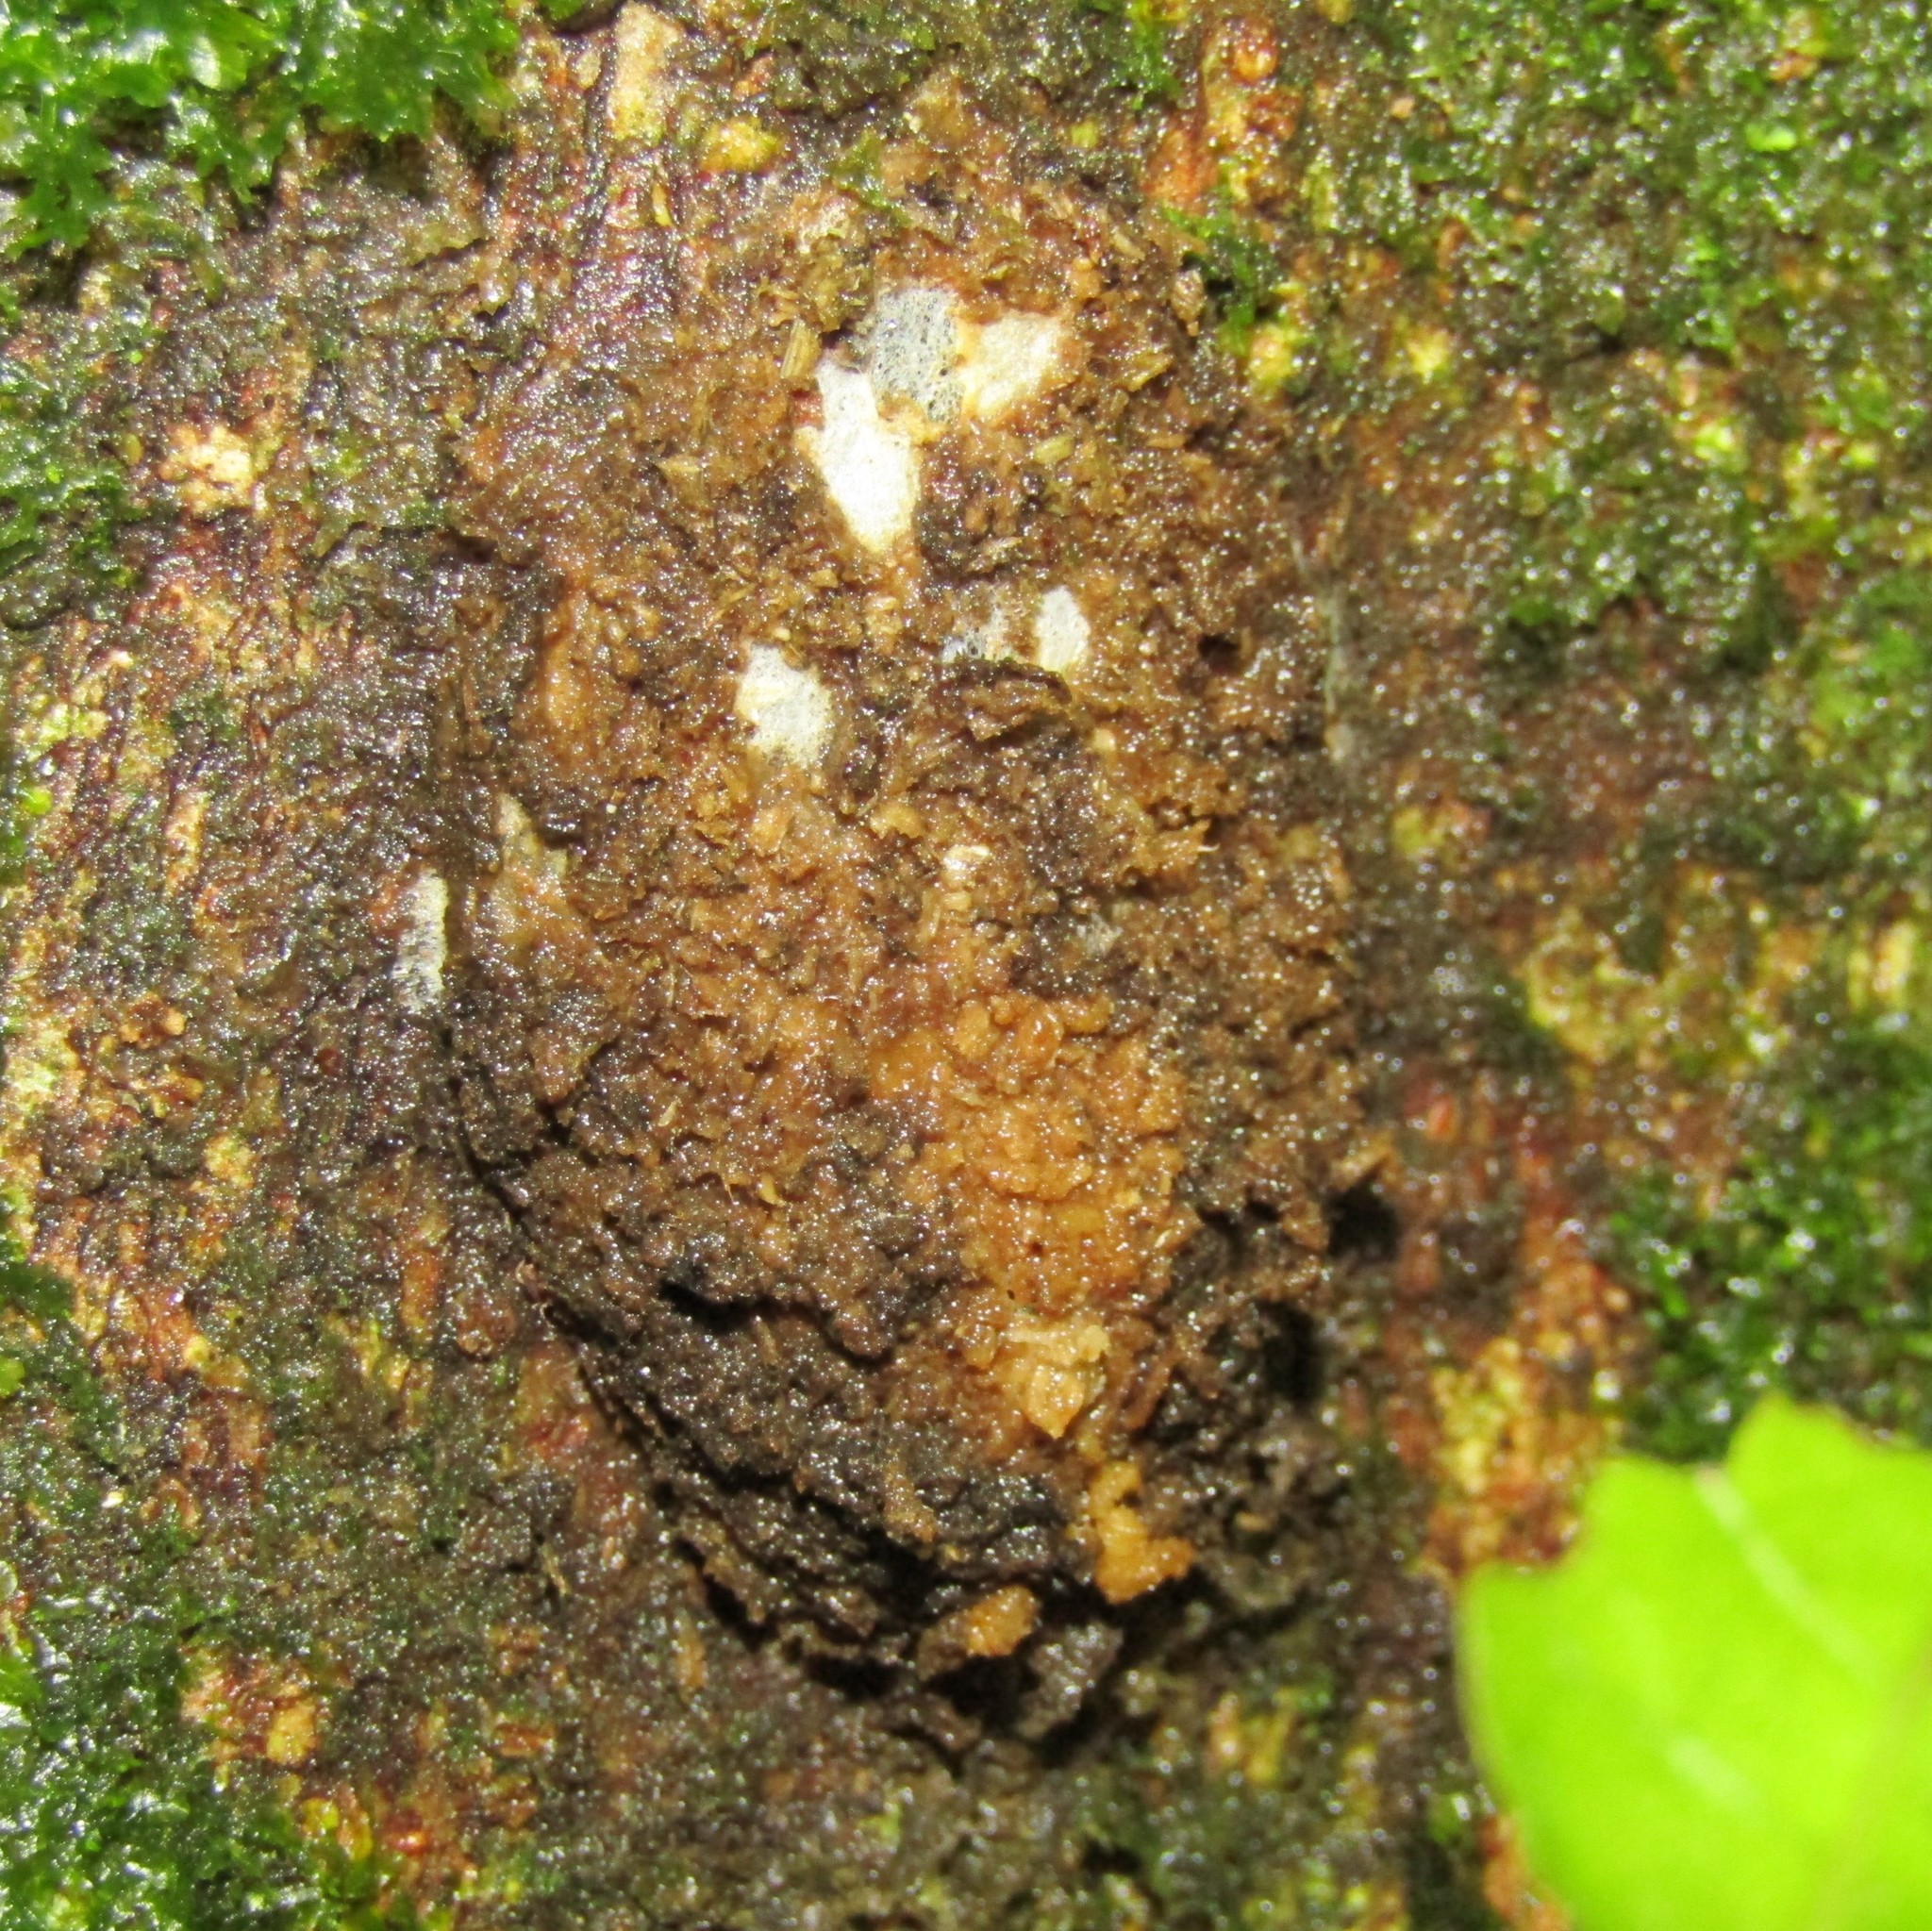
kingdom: Animalia
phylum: Arthropoda
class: Insecta
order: Lepidoptera
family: Hepialidae
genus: Aenetus
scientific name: Aenetus virescens
